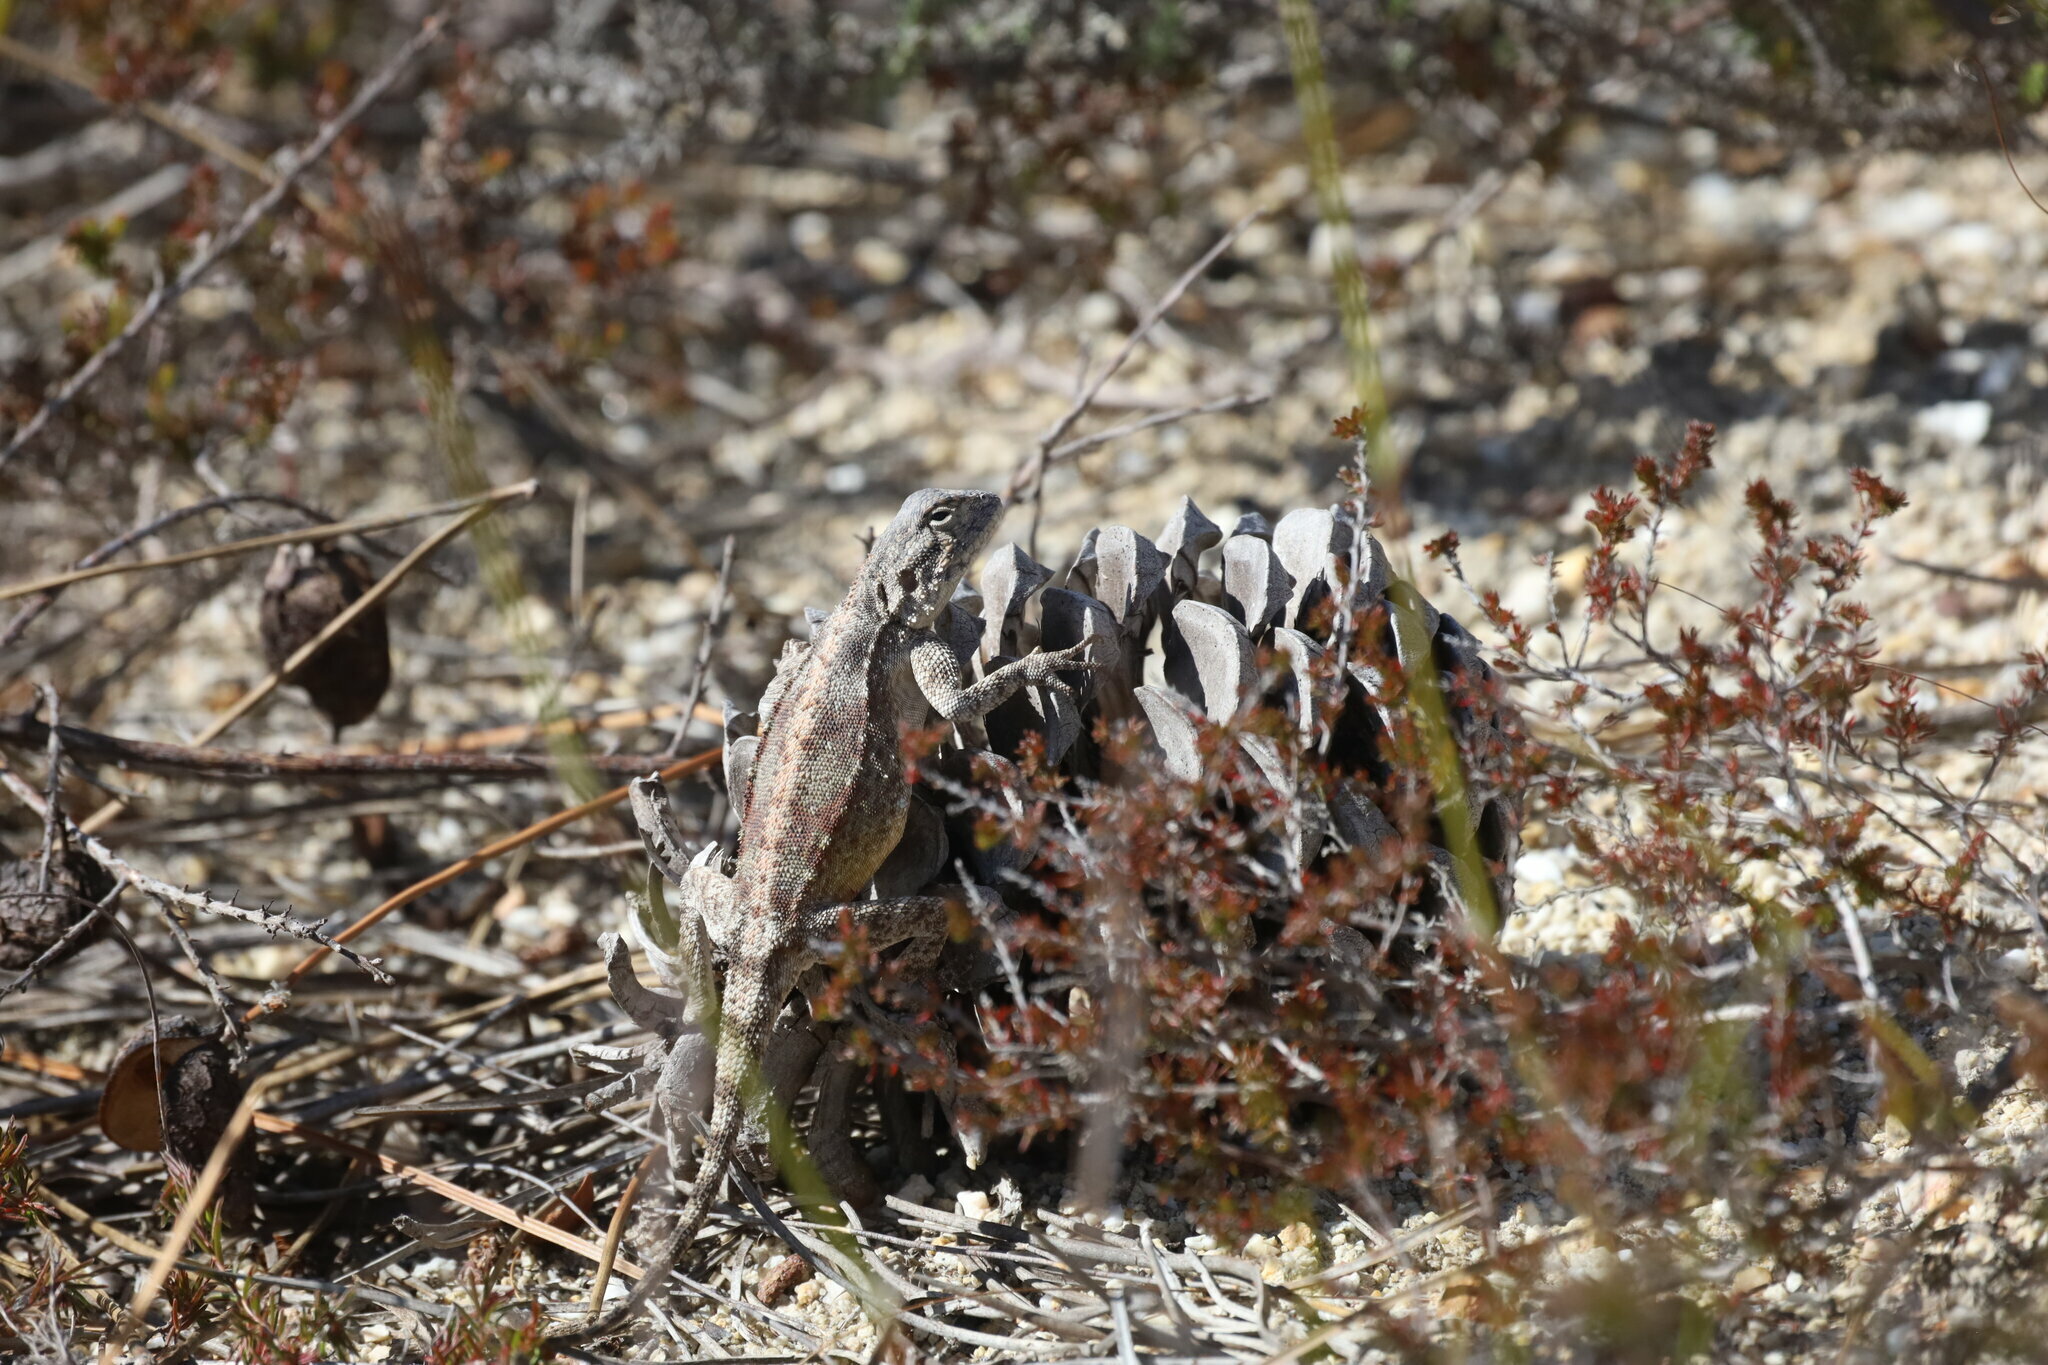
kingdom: Animalia
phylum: Chordata
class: Squamata
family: Agamidae
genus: Agama
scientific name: Agama atra
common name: Southern african rock agama
